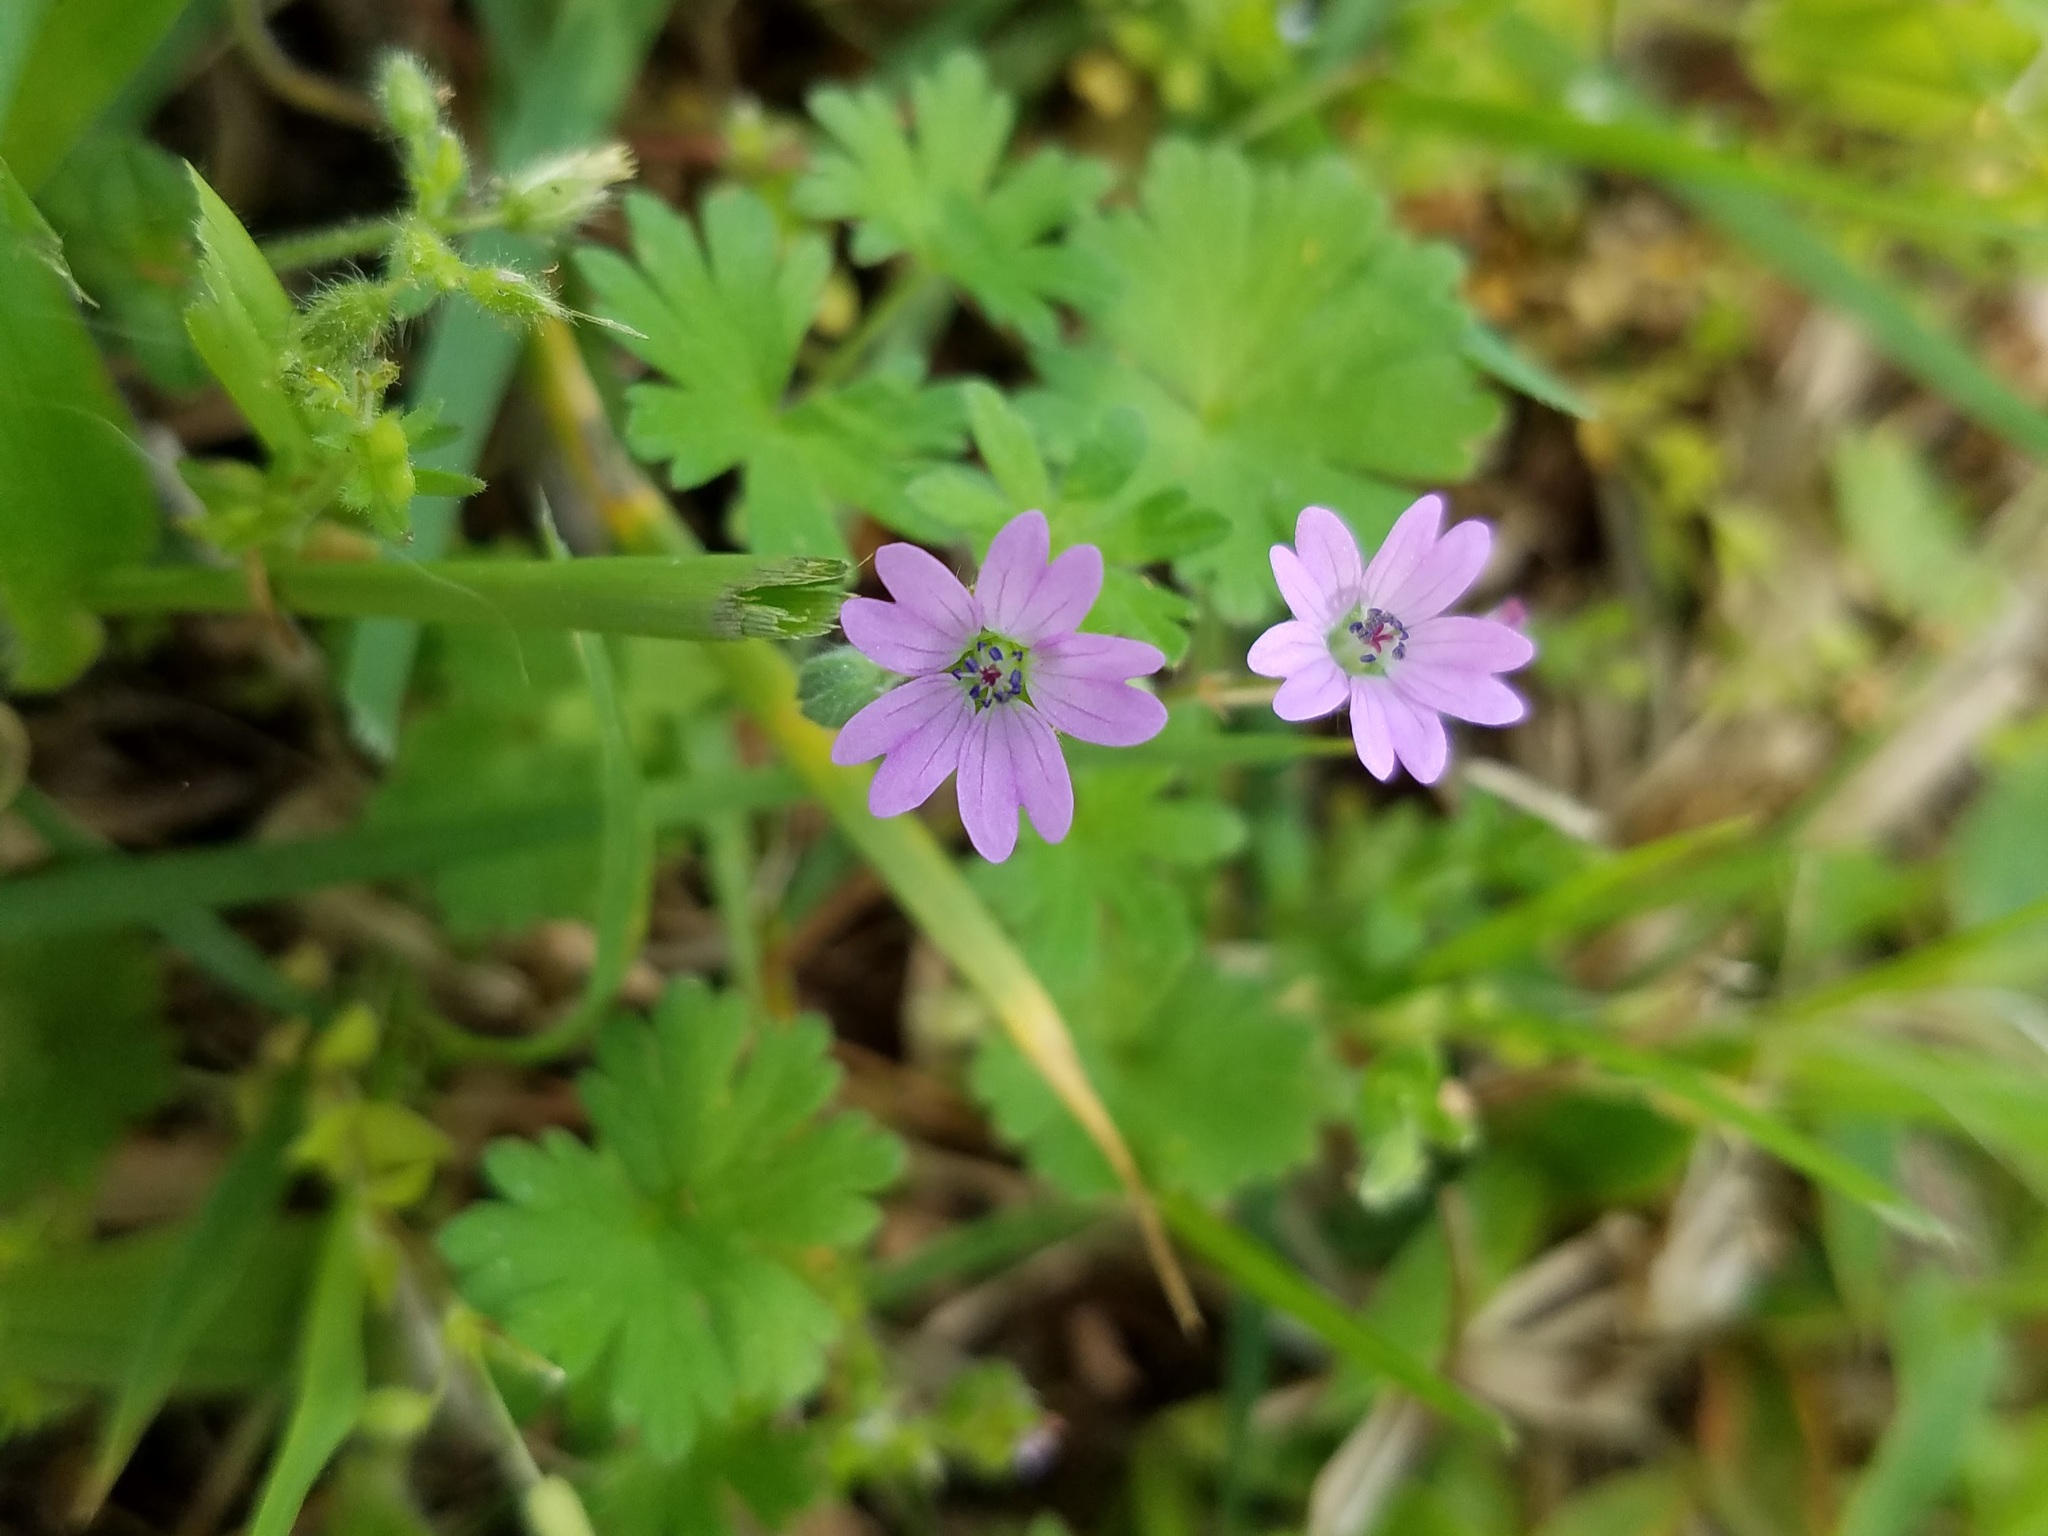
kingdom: Plantae
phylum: Tracheophyta
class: Magnoliopsida
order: Geraniales
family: Geraniaceae
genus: Geranium
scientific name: Geranium molle
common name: Dove's-foot crane's-bill
